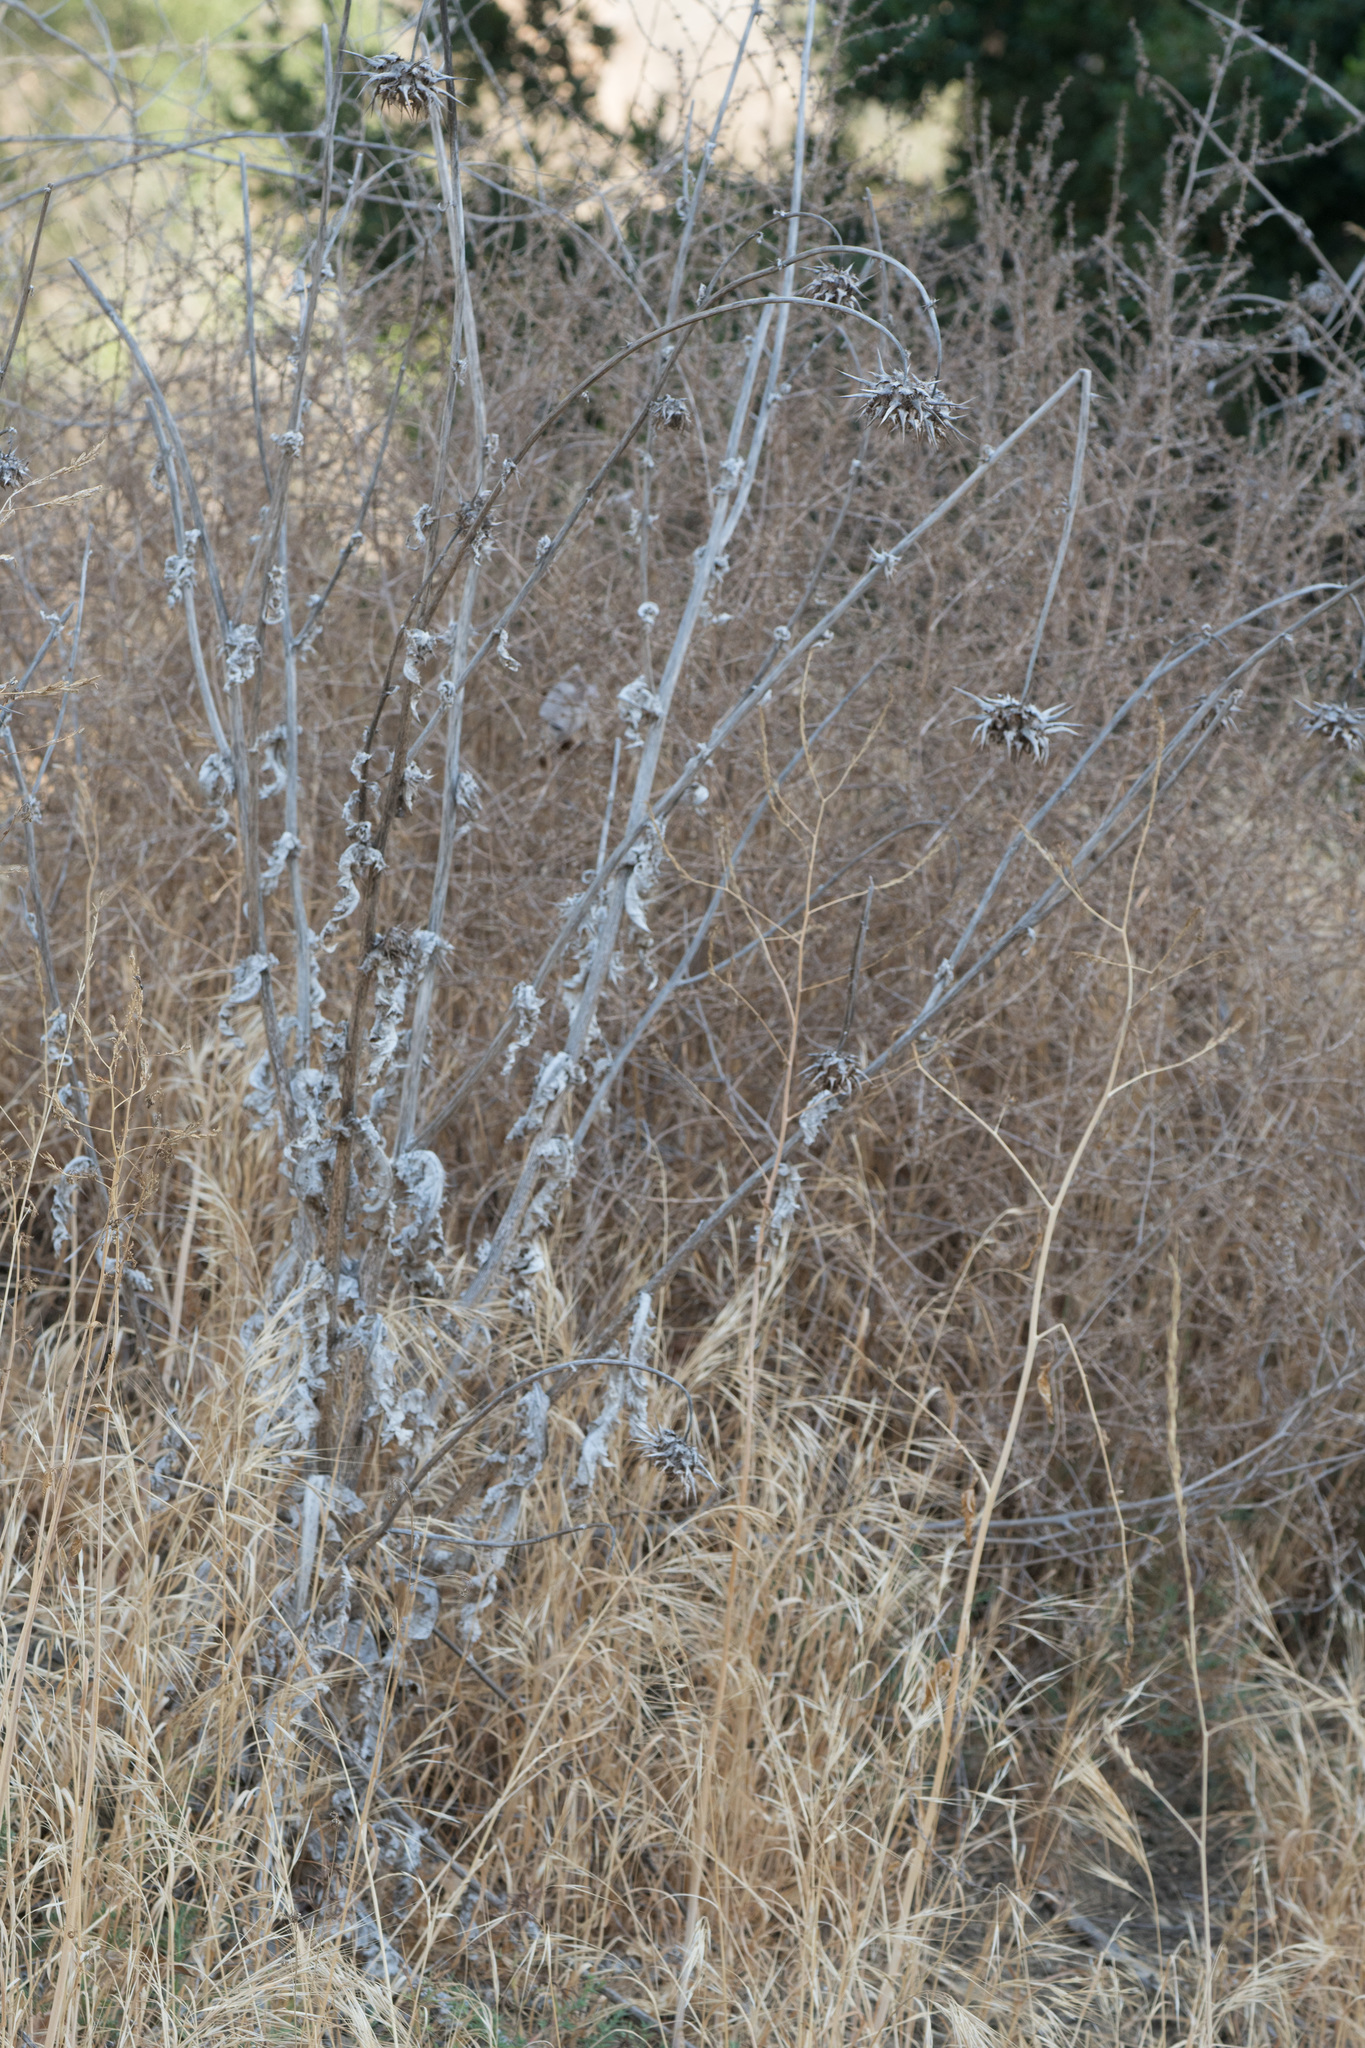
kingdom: Plantae
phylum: Tracheophyta
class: Magnoliopsida
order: Asterales
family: Asteraceae
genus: Silybum
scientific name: Silybum marianum
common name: Milk thistle
